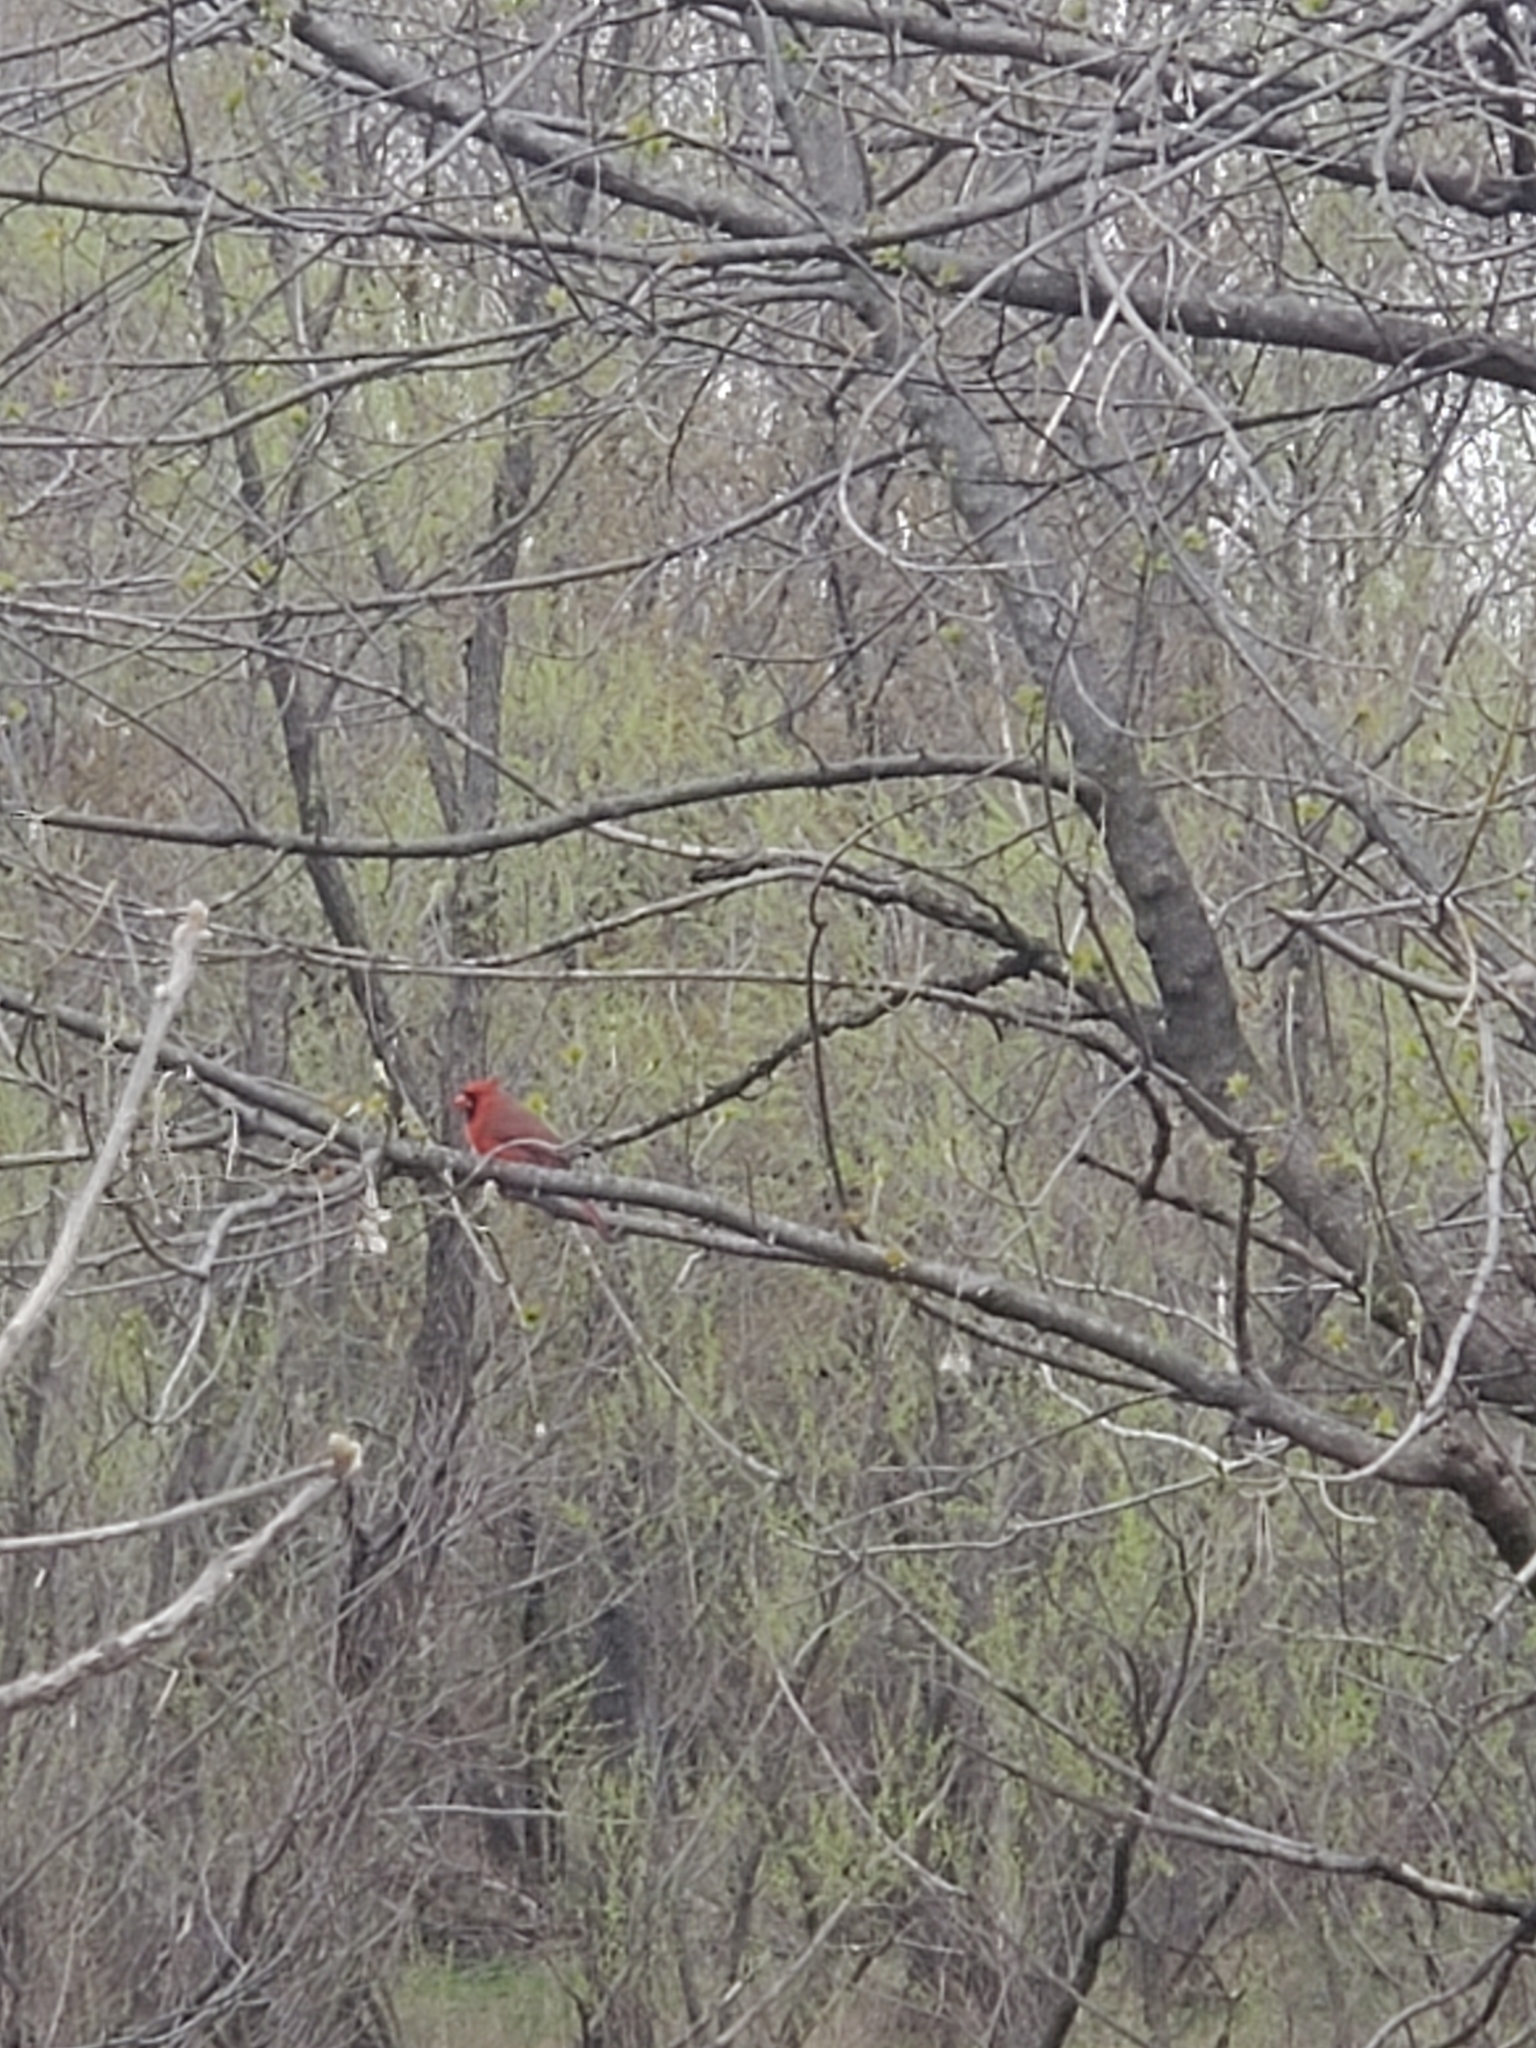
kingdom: Animalia
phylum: Chordata
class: Aves
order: Passeriformes
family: Cardinalidae
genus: Cardinalis
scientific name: Cardinalis cardinalis
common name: Northern cardinal
